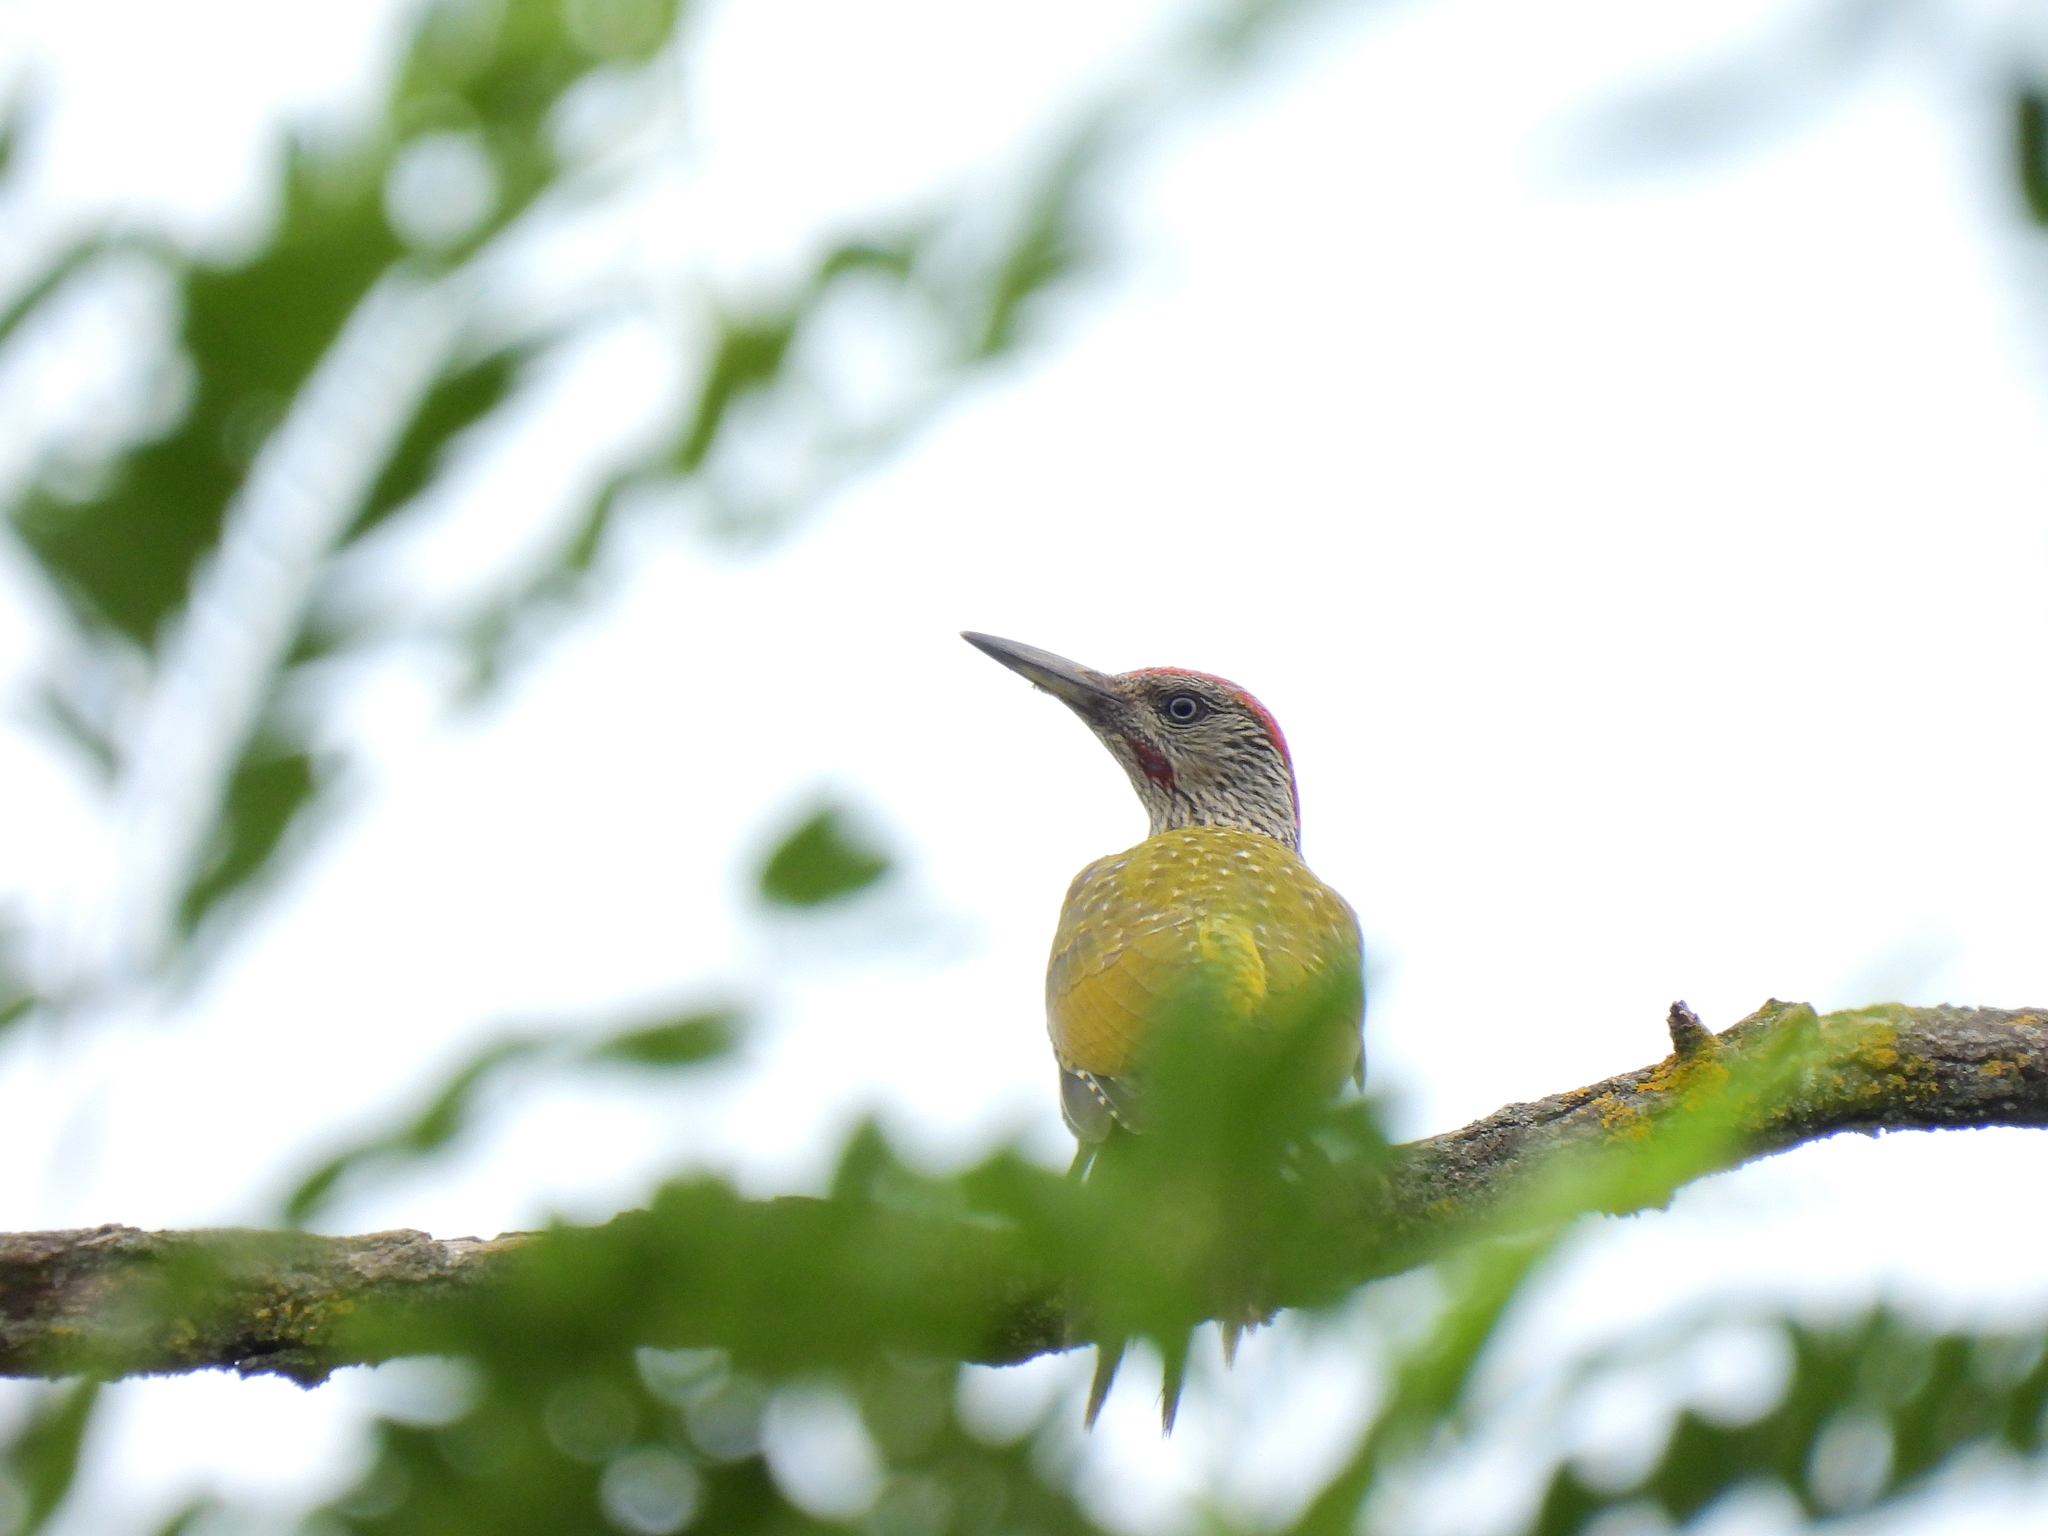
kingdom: Animalia
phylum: Chordata
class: Aves
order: Piciformes
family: Picidae
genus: Picus
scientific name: Picus viridis
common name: European green woodpecker
